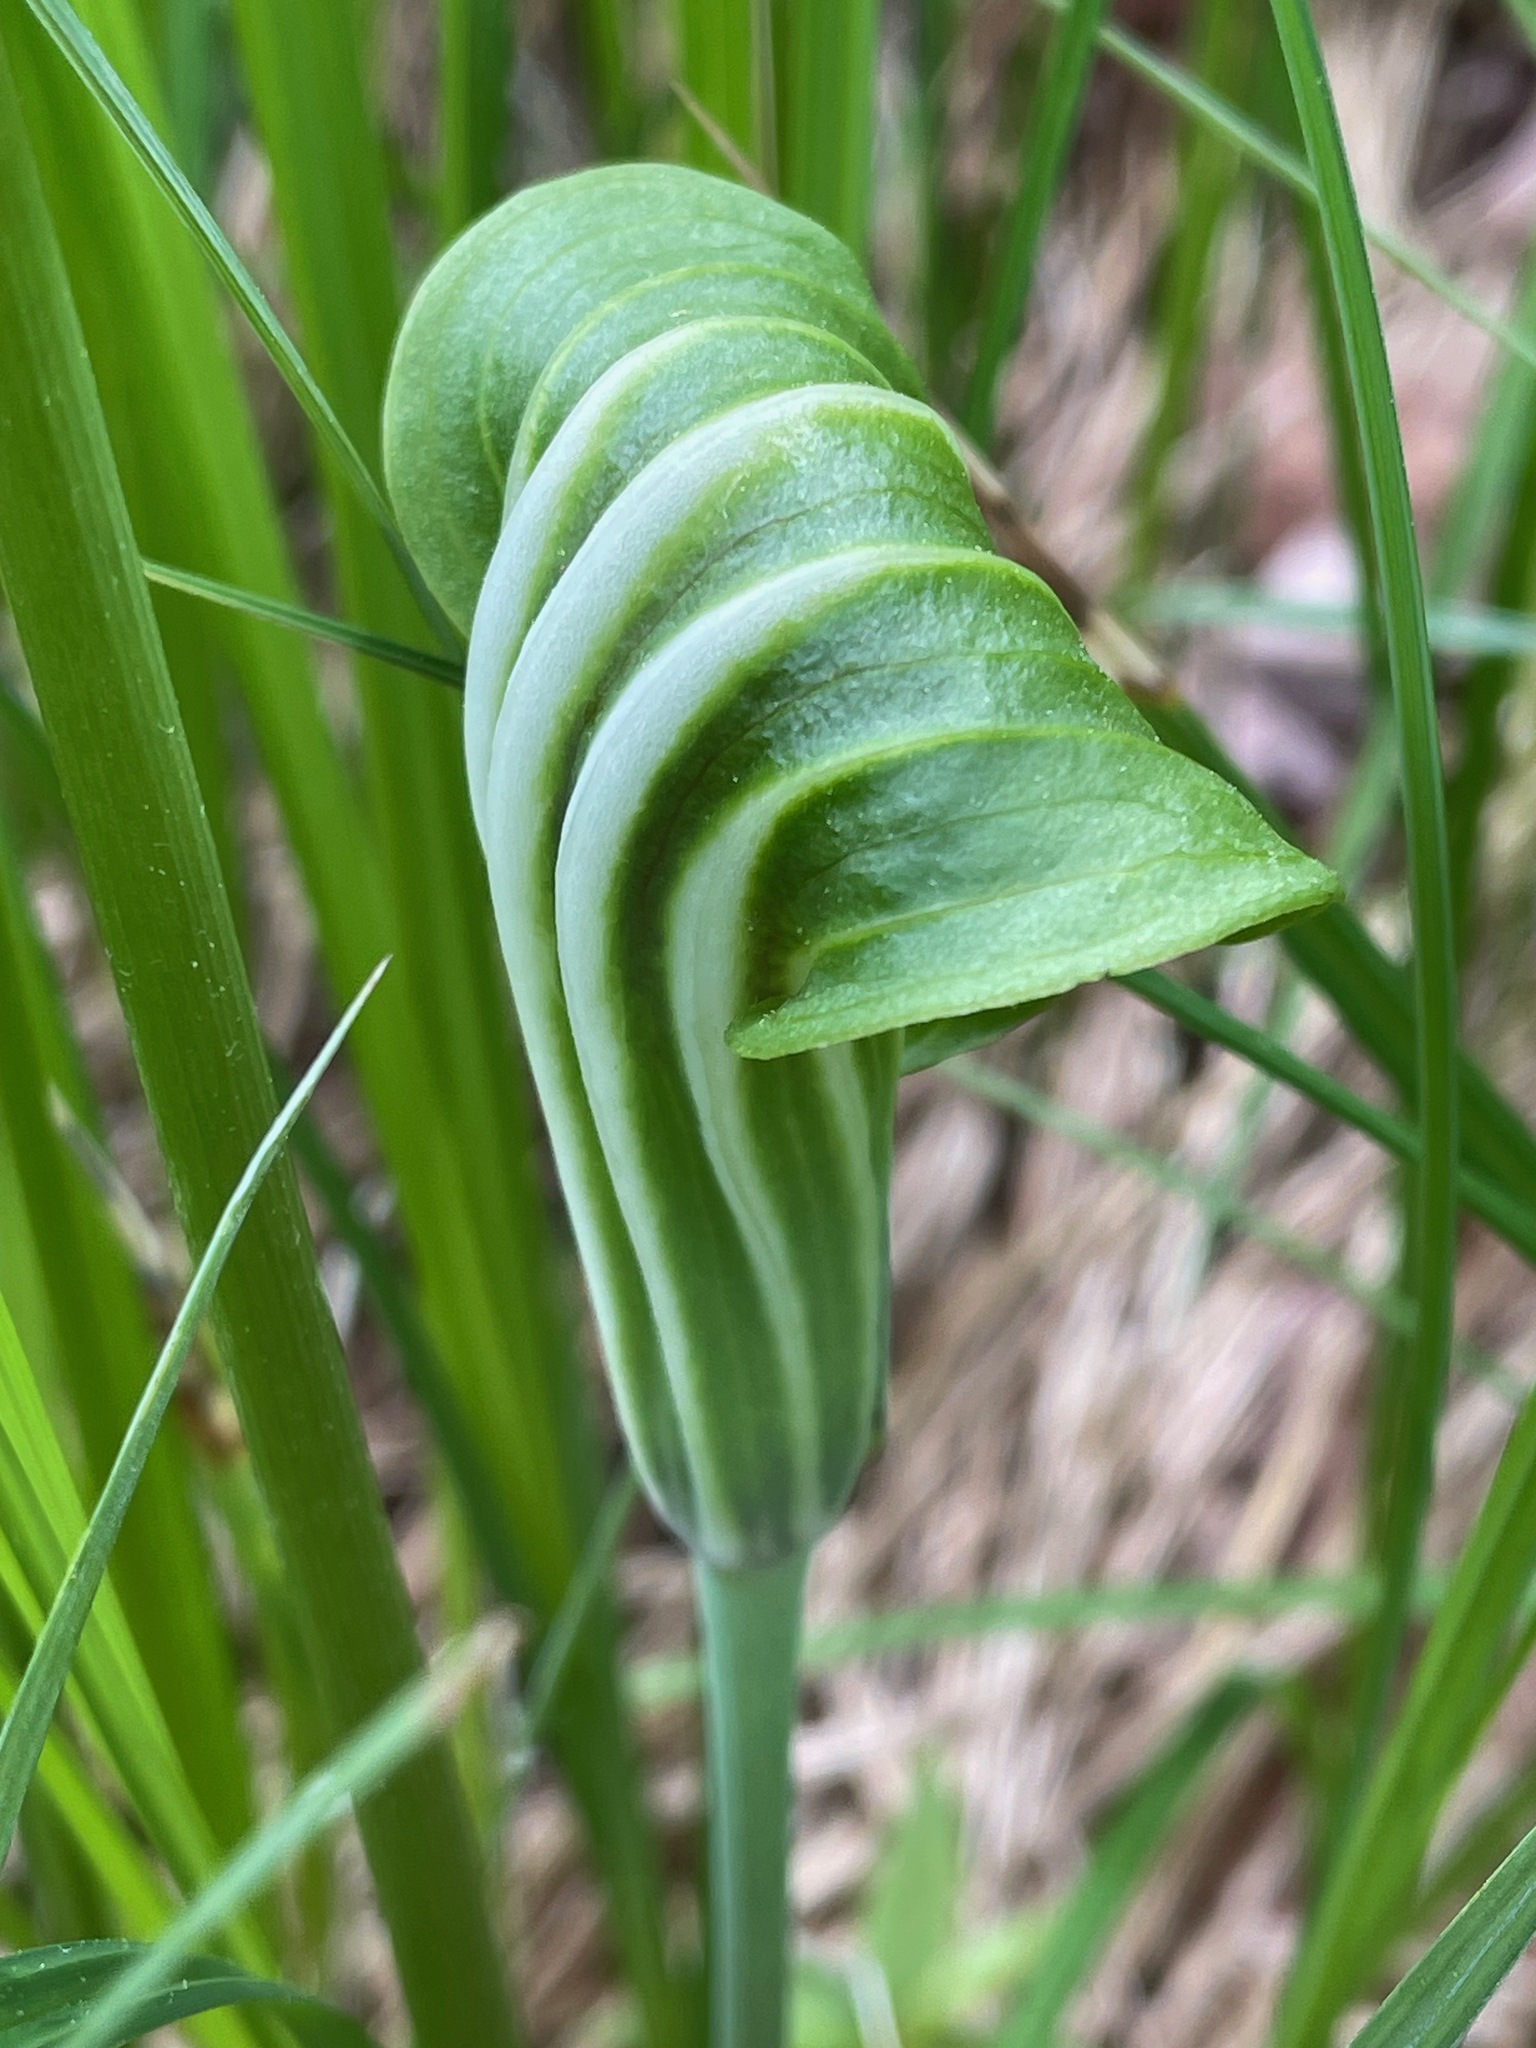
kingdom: Plantae
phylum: Tracheophyta
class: Liliopsida
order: Alismatales
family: Araceae
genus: Arisaema
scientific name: Arisaema stewardsonii
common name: Swamp jack-in-the-pulpit
